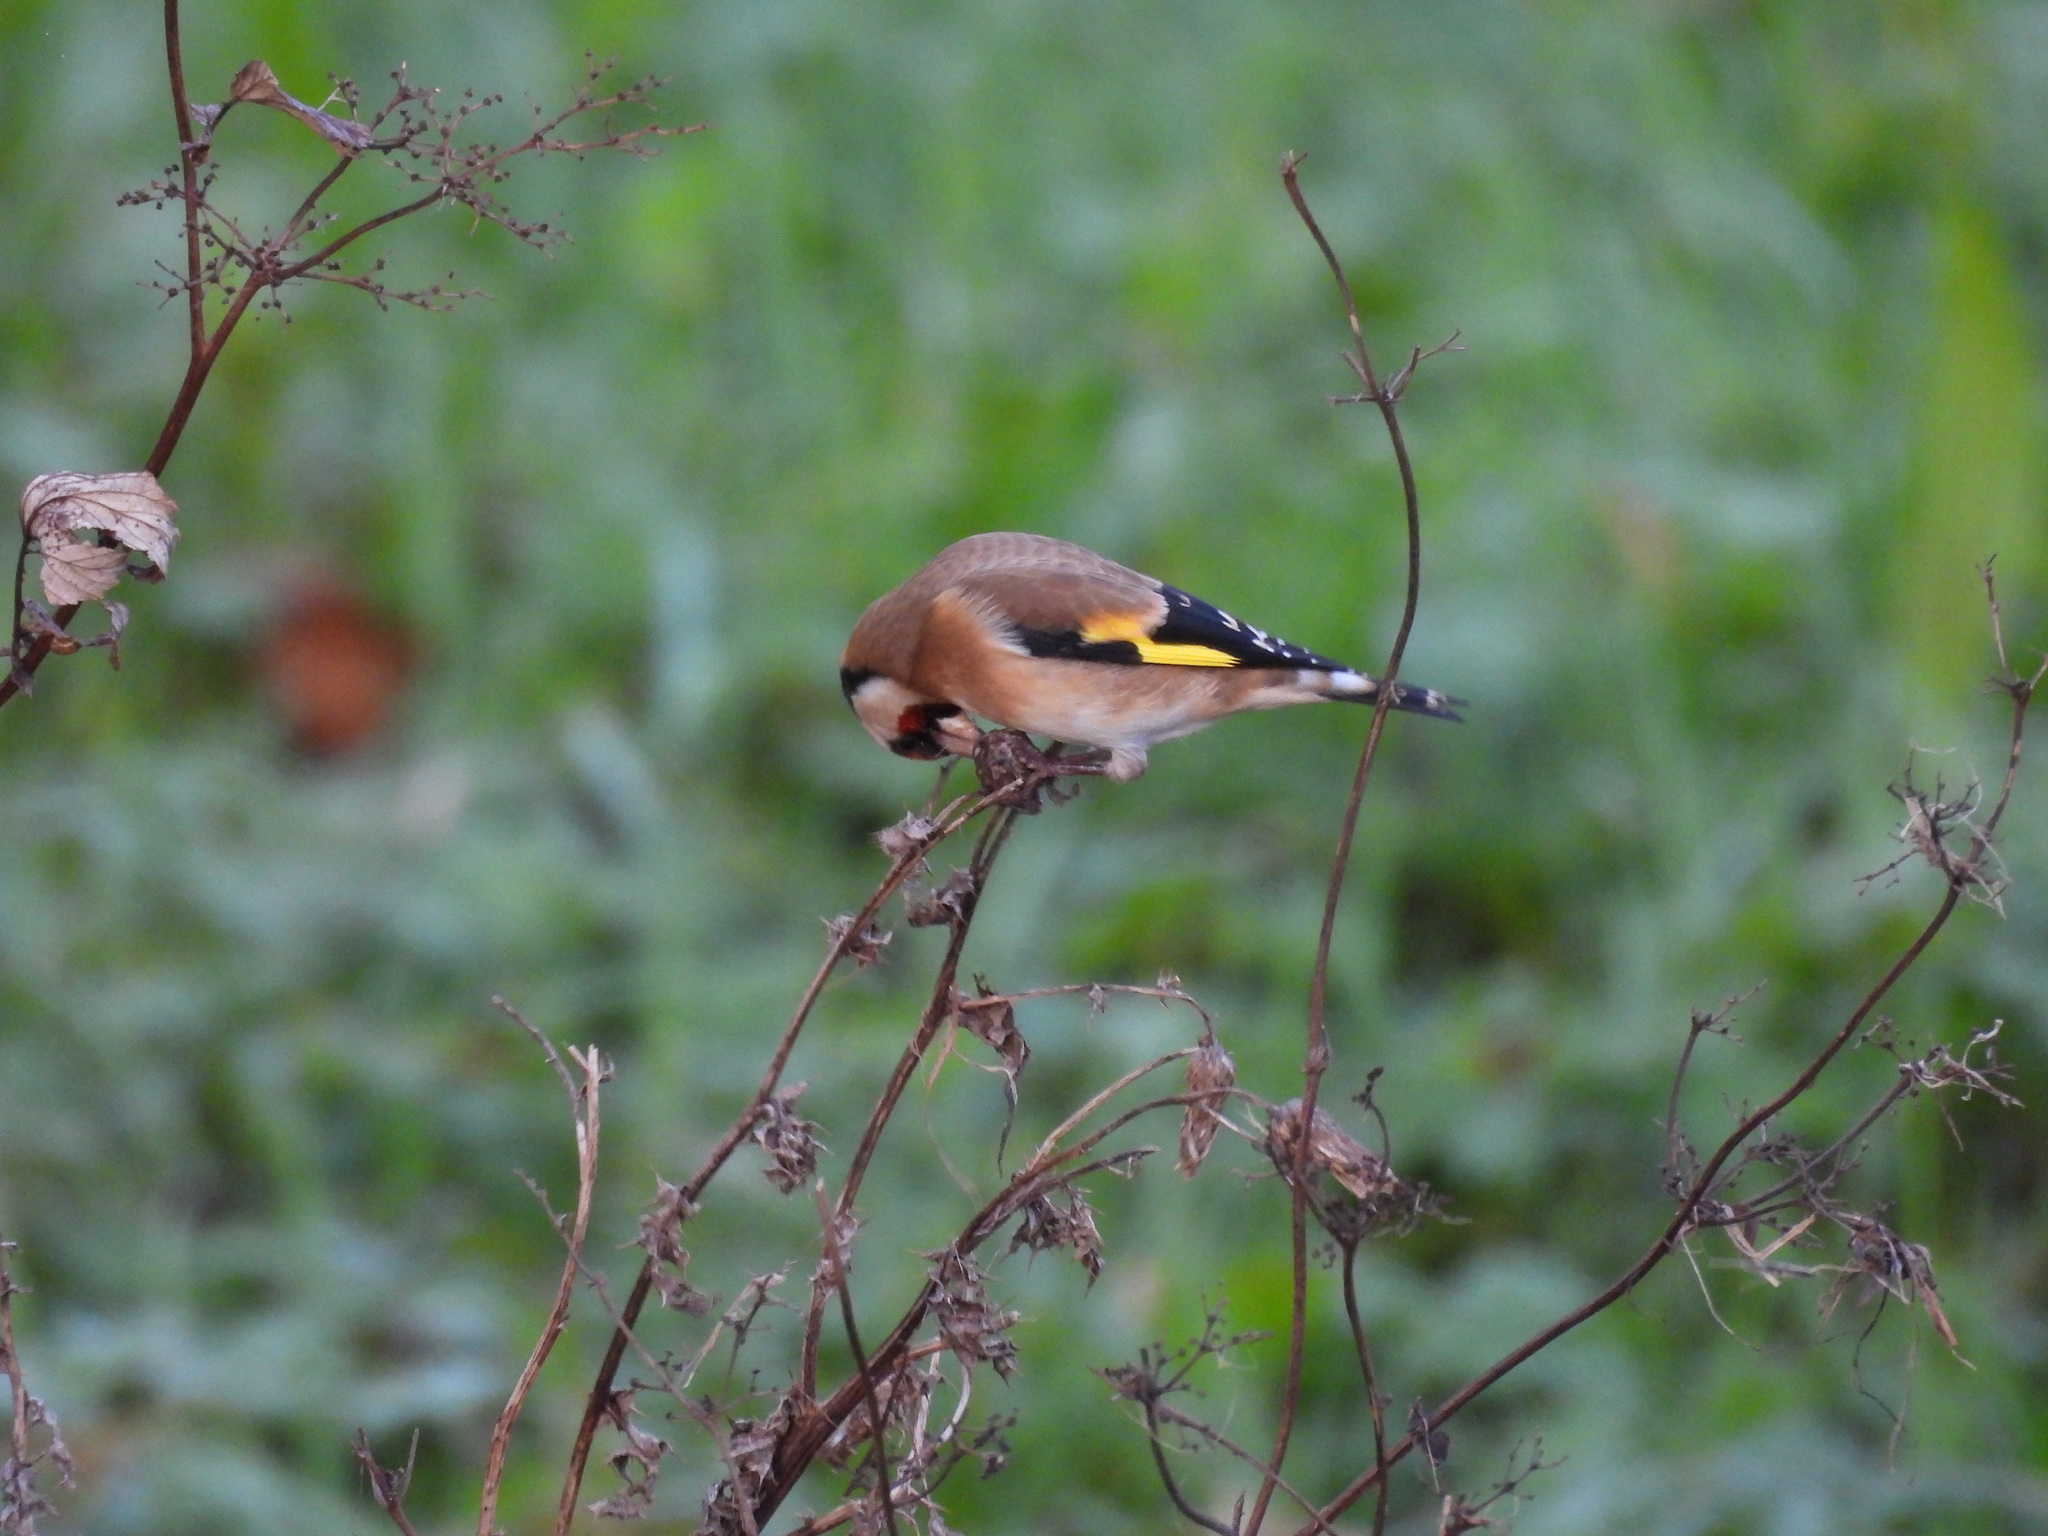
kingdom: Animalia
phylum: Chordata
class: Aves
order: Passeriformes
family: Fringillidae
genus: Carduelis
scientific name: Carduelis carduelis
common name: European goldfinch
